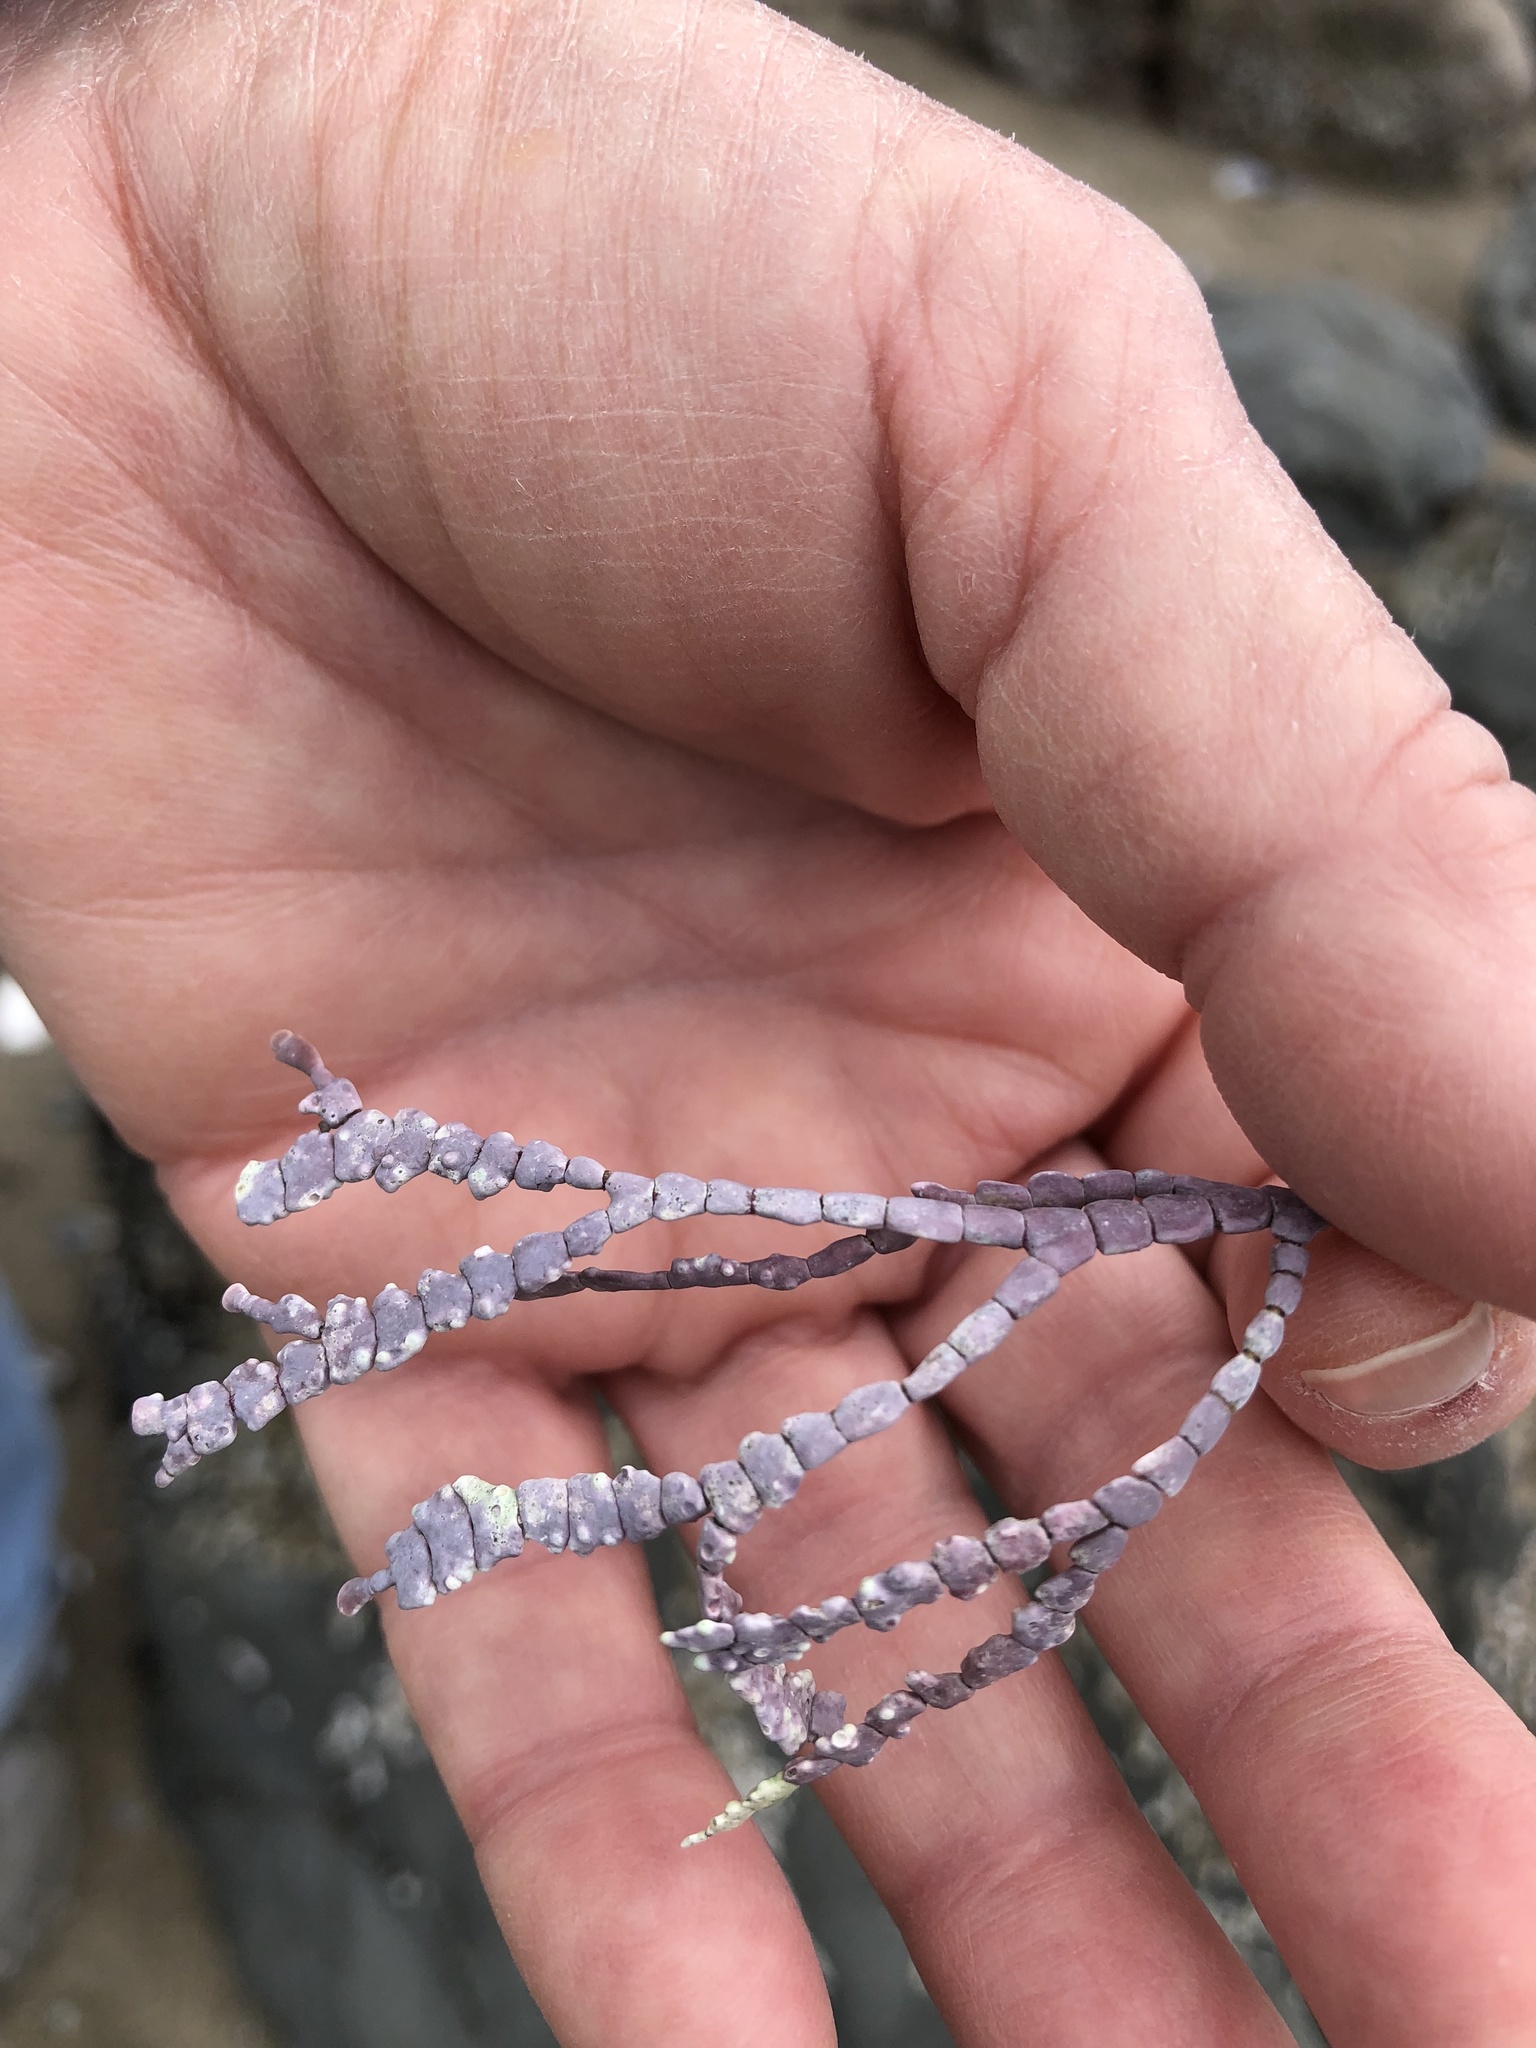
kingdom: Plantae
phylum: Rhodophyta
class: Florideophyceae
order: Corallinales
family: Corallinaceae
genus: Calliarthron
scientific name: Calliarthron tuberculosum
